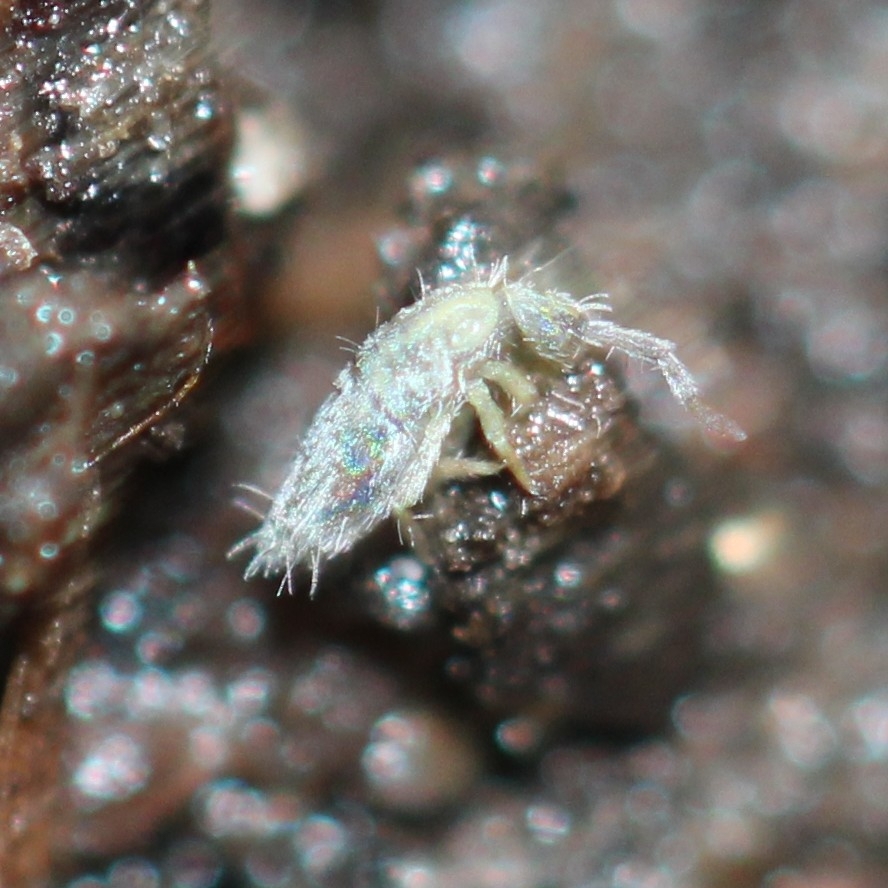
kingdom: Animalia
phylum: Arthropoda
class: Collembola
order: Entomobryomorpha
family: Entomobryidae
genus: Entomobrya
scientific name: Entomobrya unostrigata
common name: Springtail
